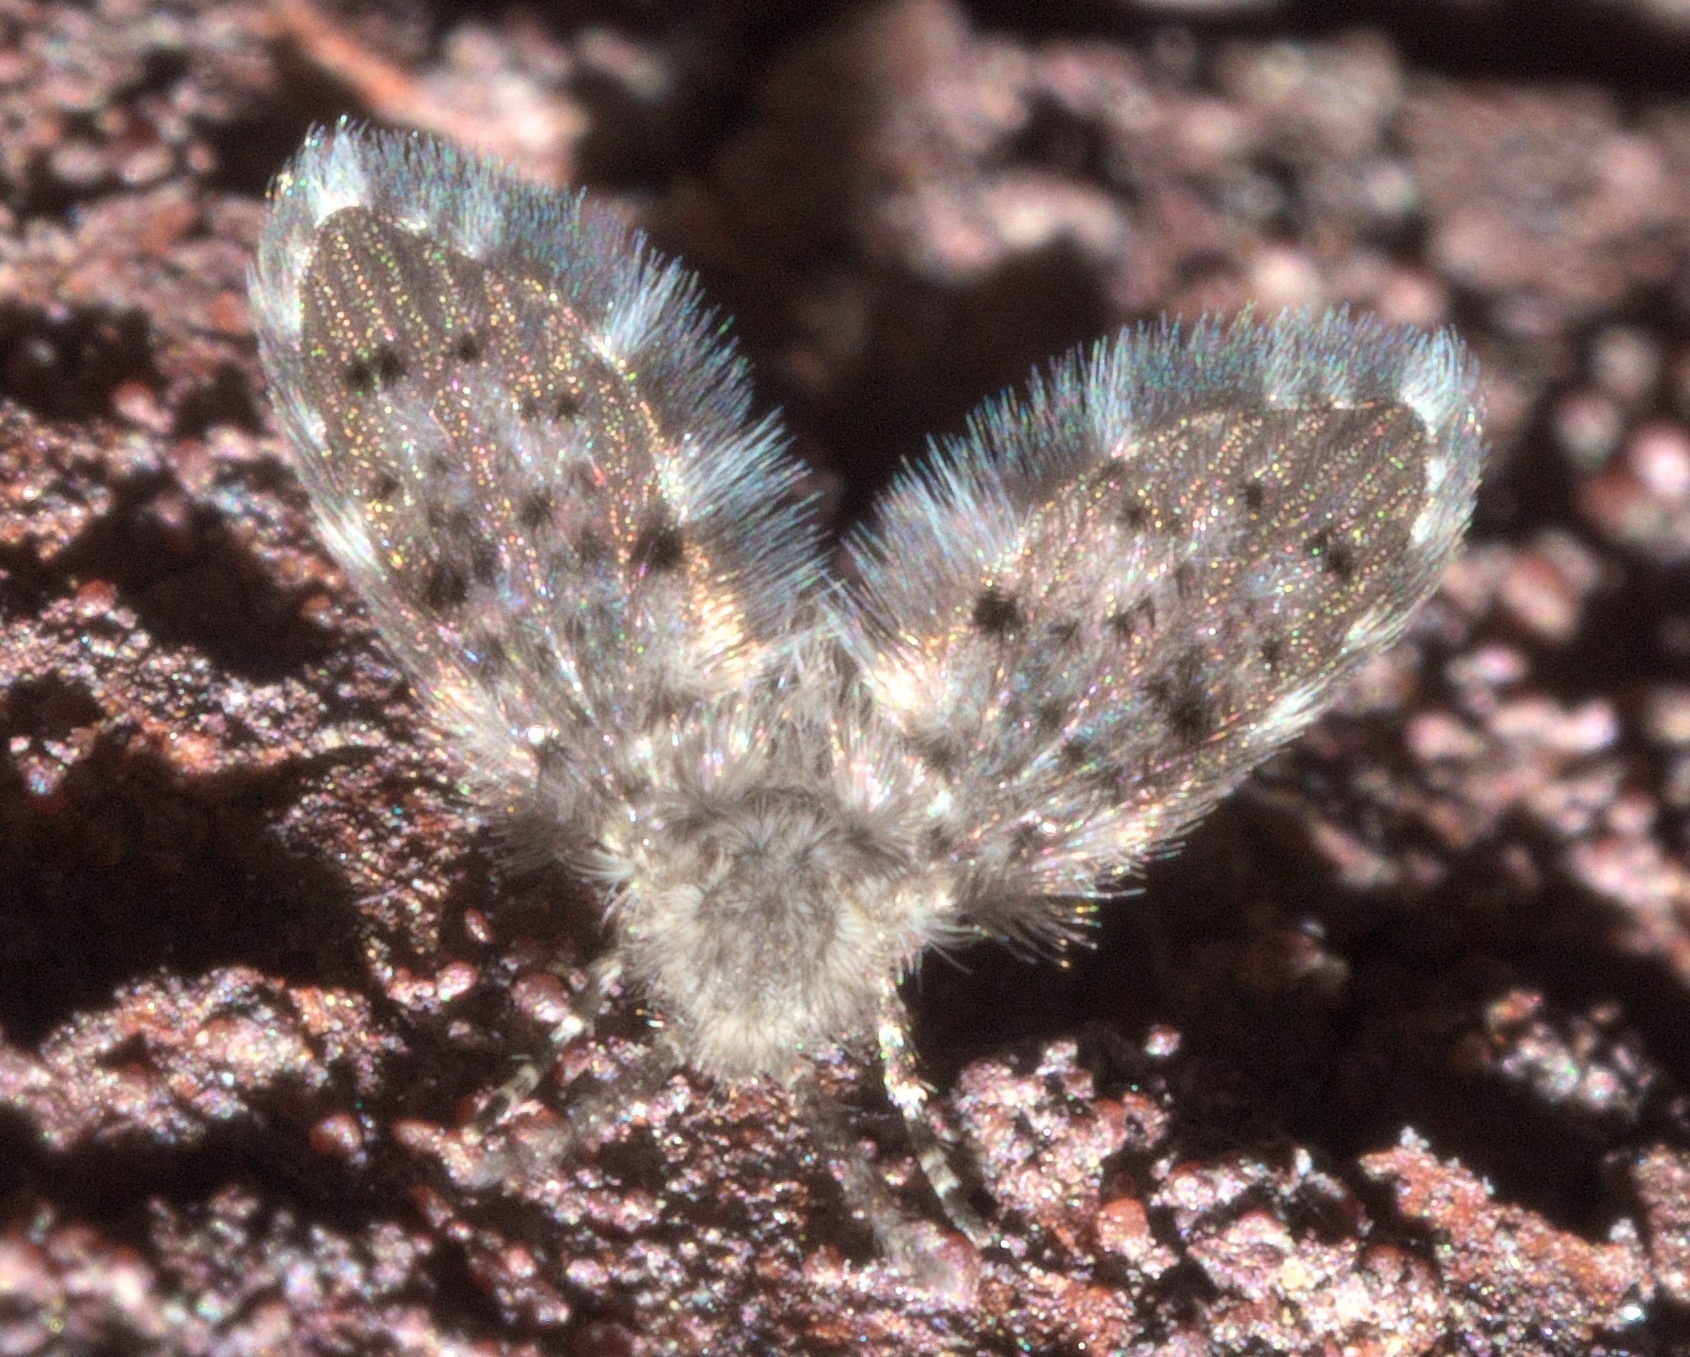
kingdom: Animalia
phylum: Arthropoda
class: Insecta
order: Diptera
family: Psychodidae
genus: Paramormia
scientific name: Paramormia corniculata
